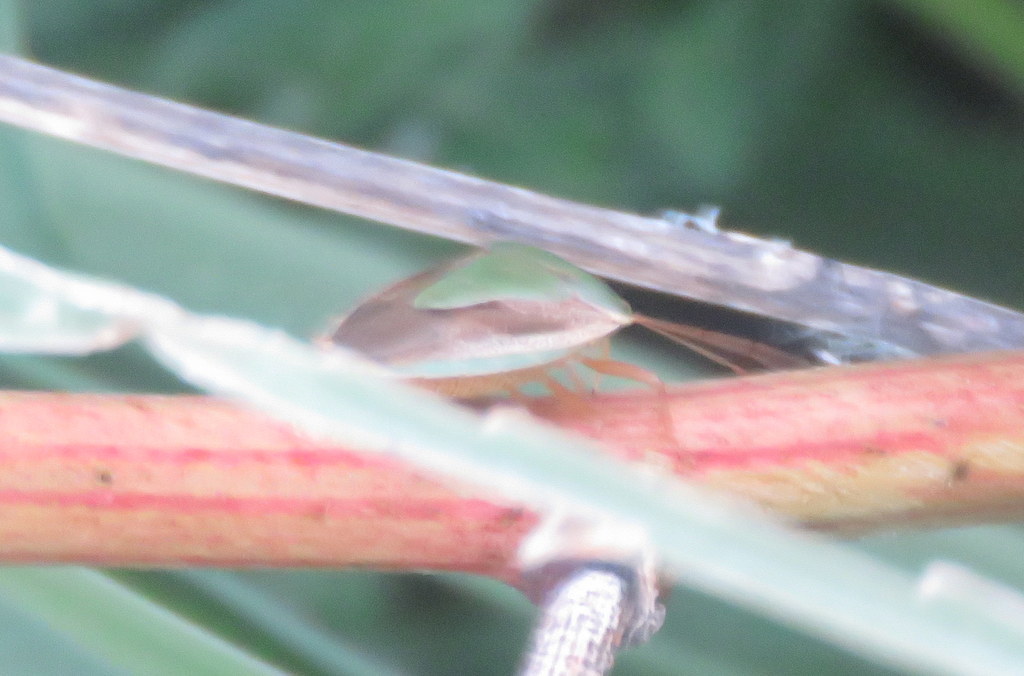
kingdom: Animalia
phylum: Arthropoda
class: Insecta
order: Hemiptera
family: Pentatomidae
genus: Edessa
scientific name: Edessa meditabunda
